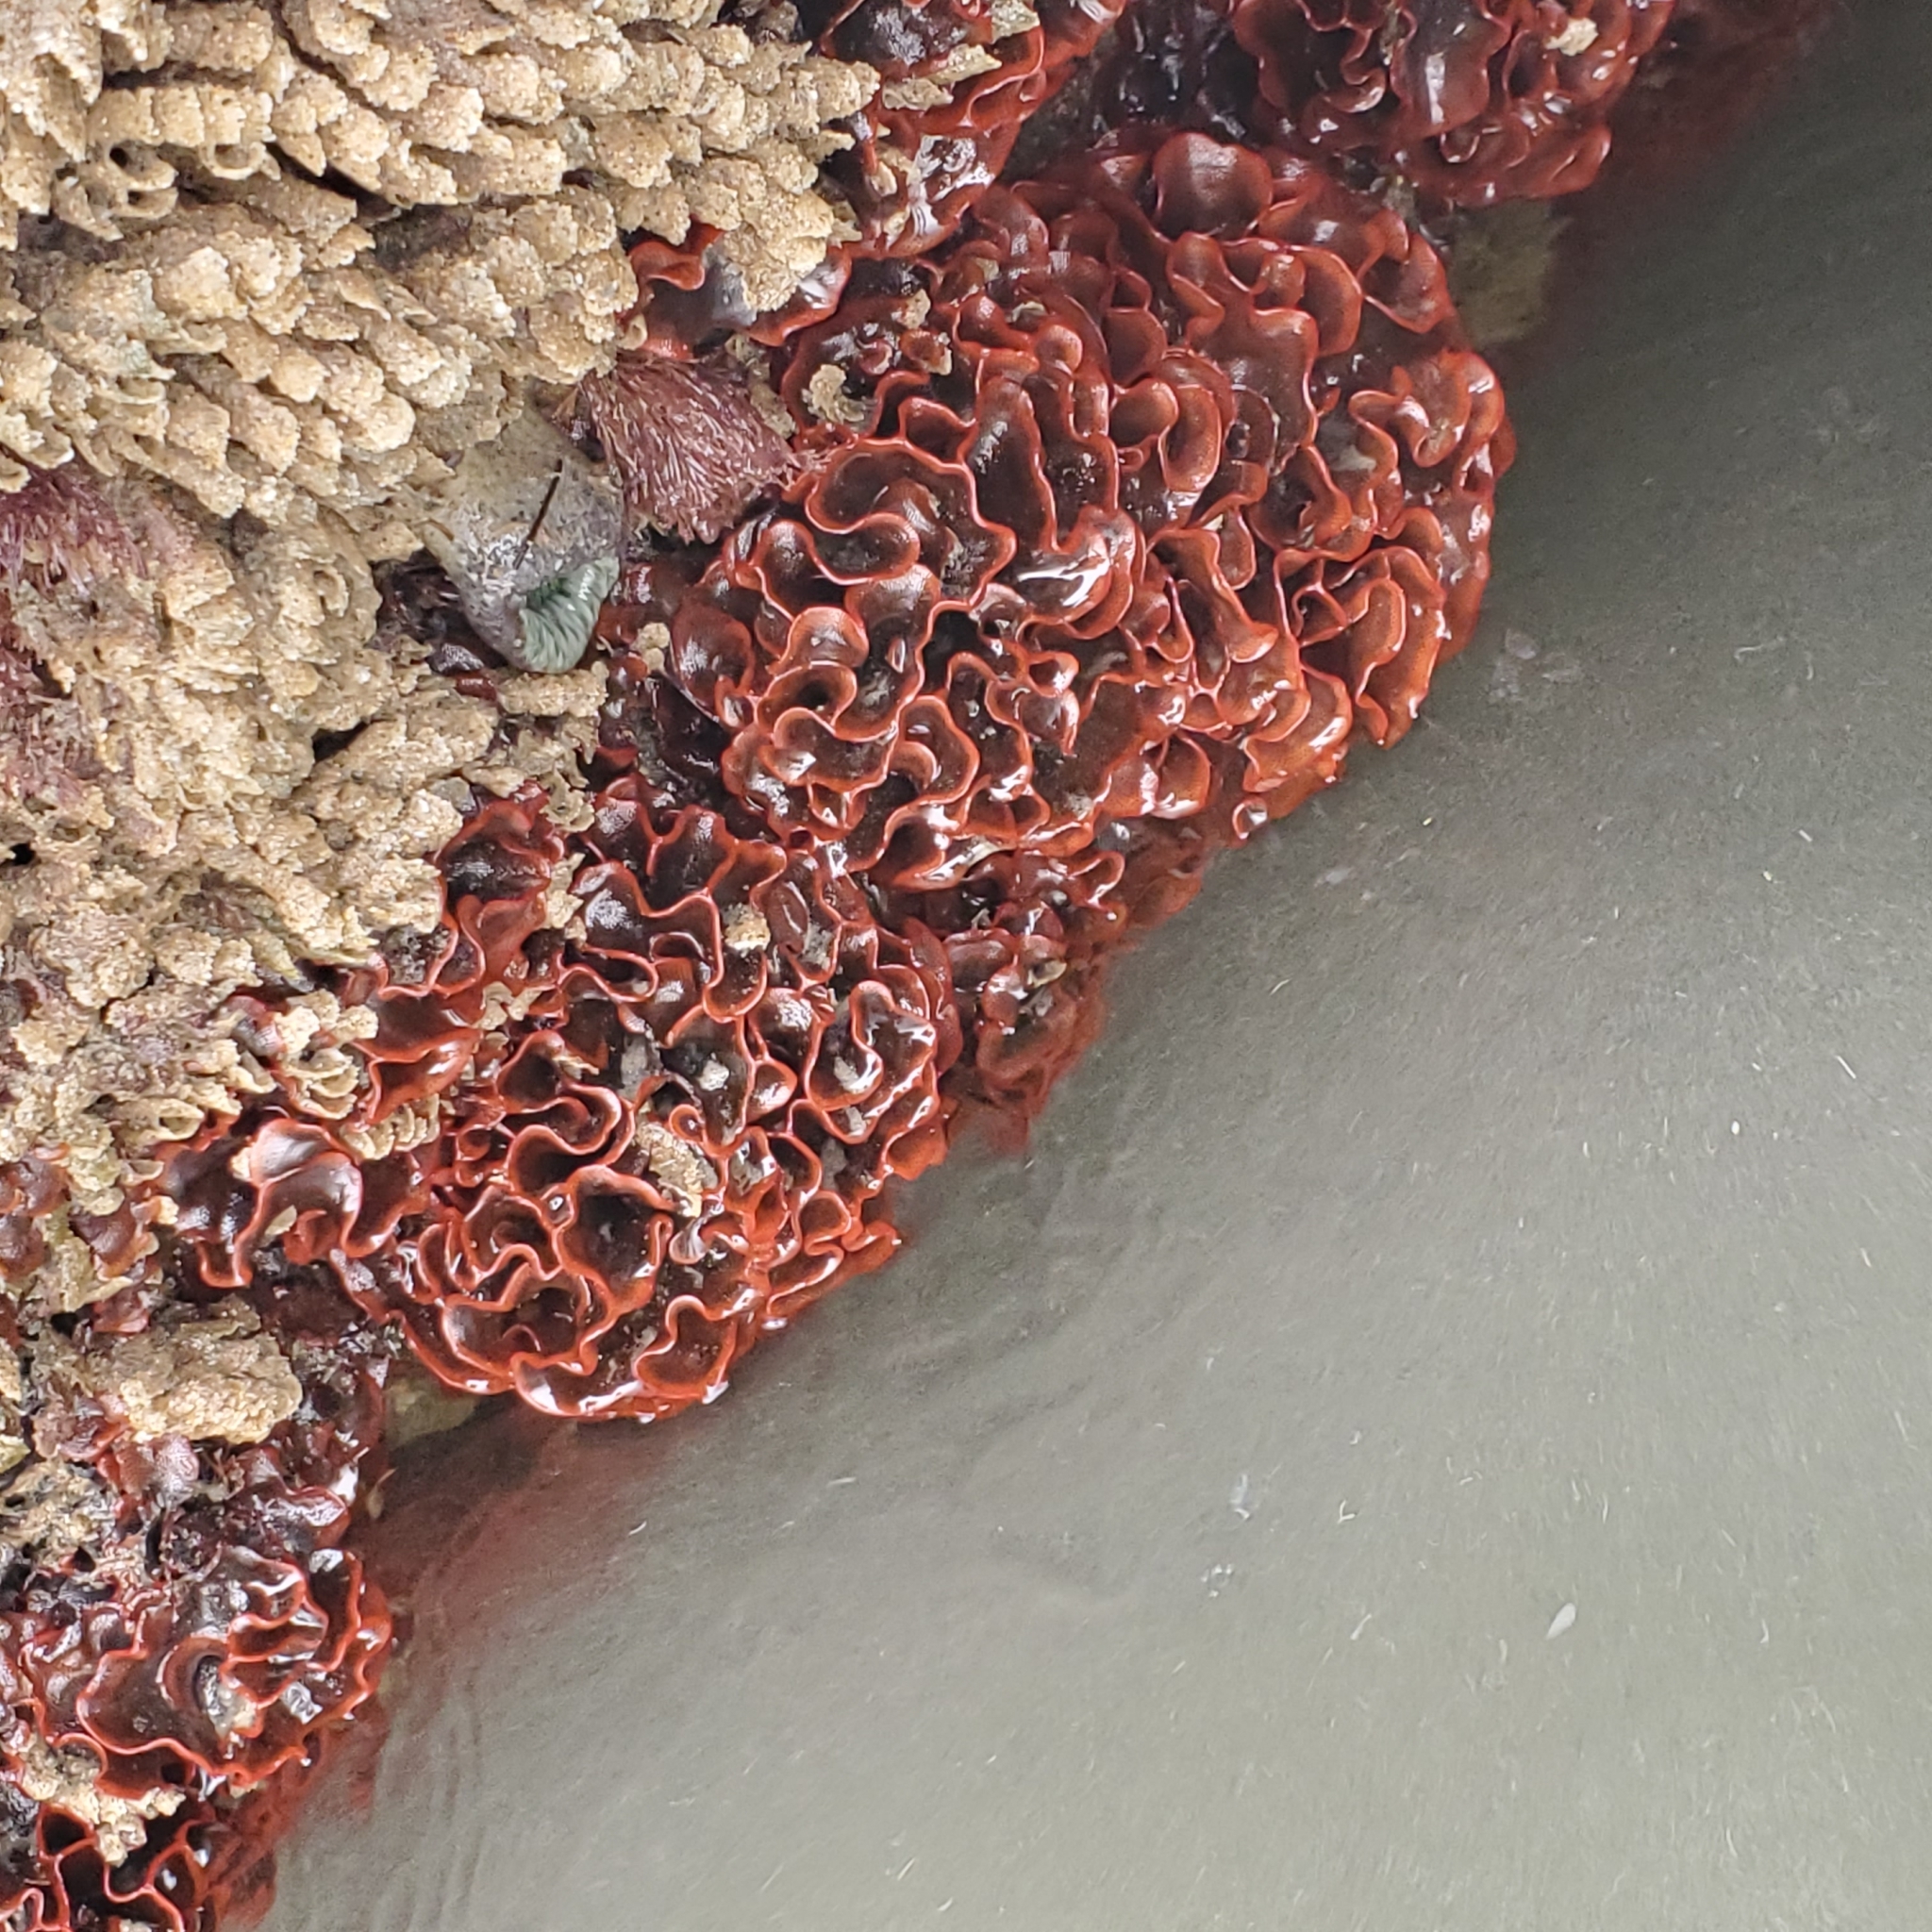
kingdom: Animalia
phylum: Bryozoa
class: Gymnolaemata
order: Cheilostomatida
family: Watersiporidae
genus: Watersipora
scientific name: Watersipora subtorquata
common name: Bryozoan
